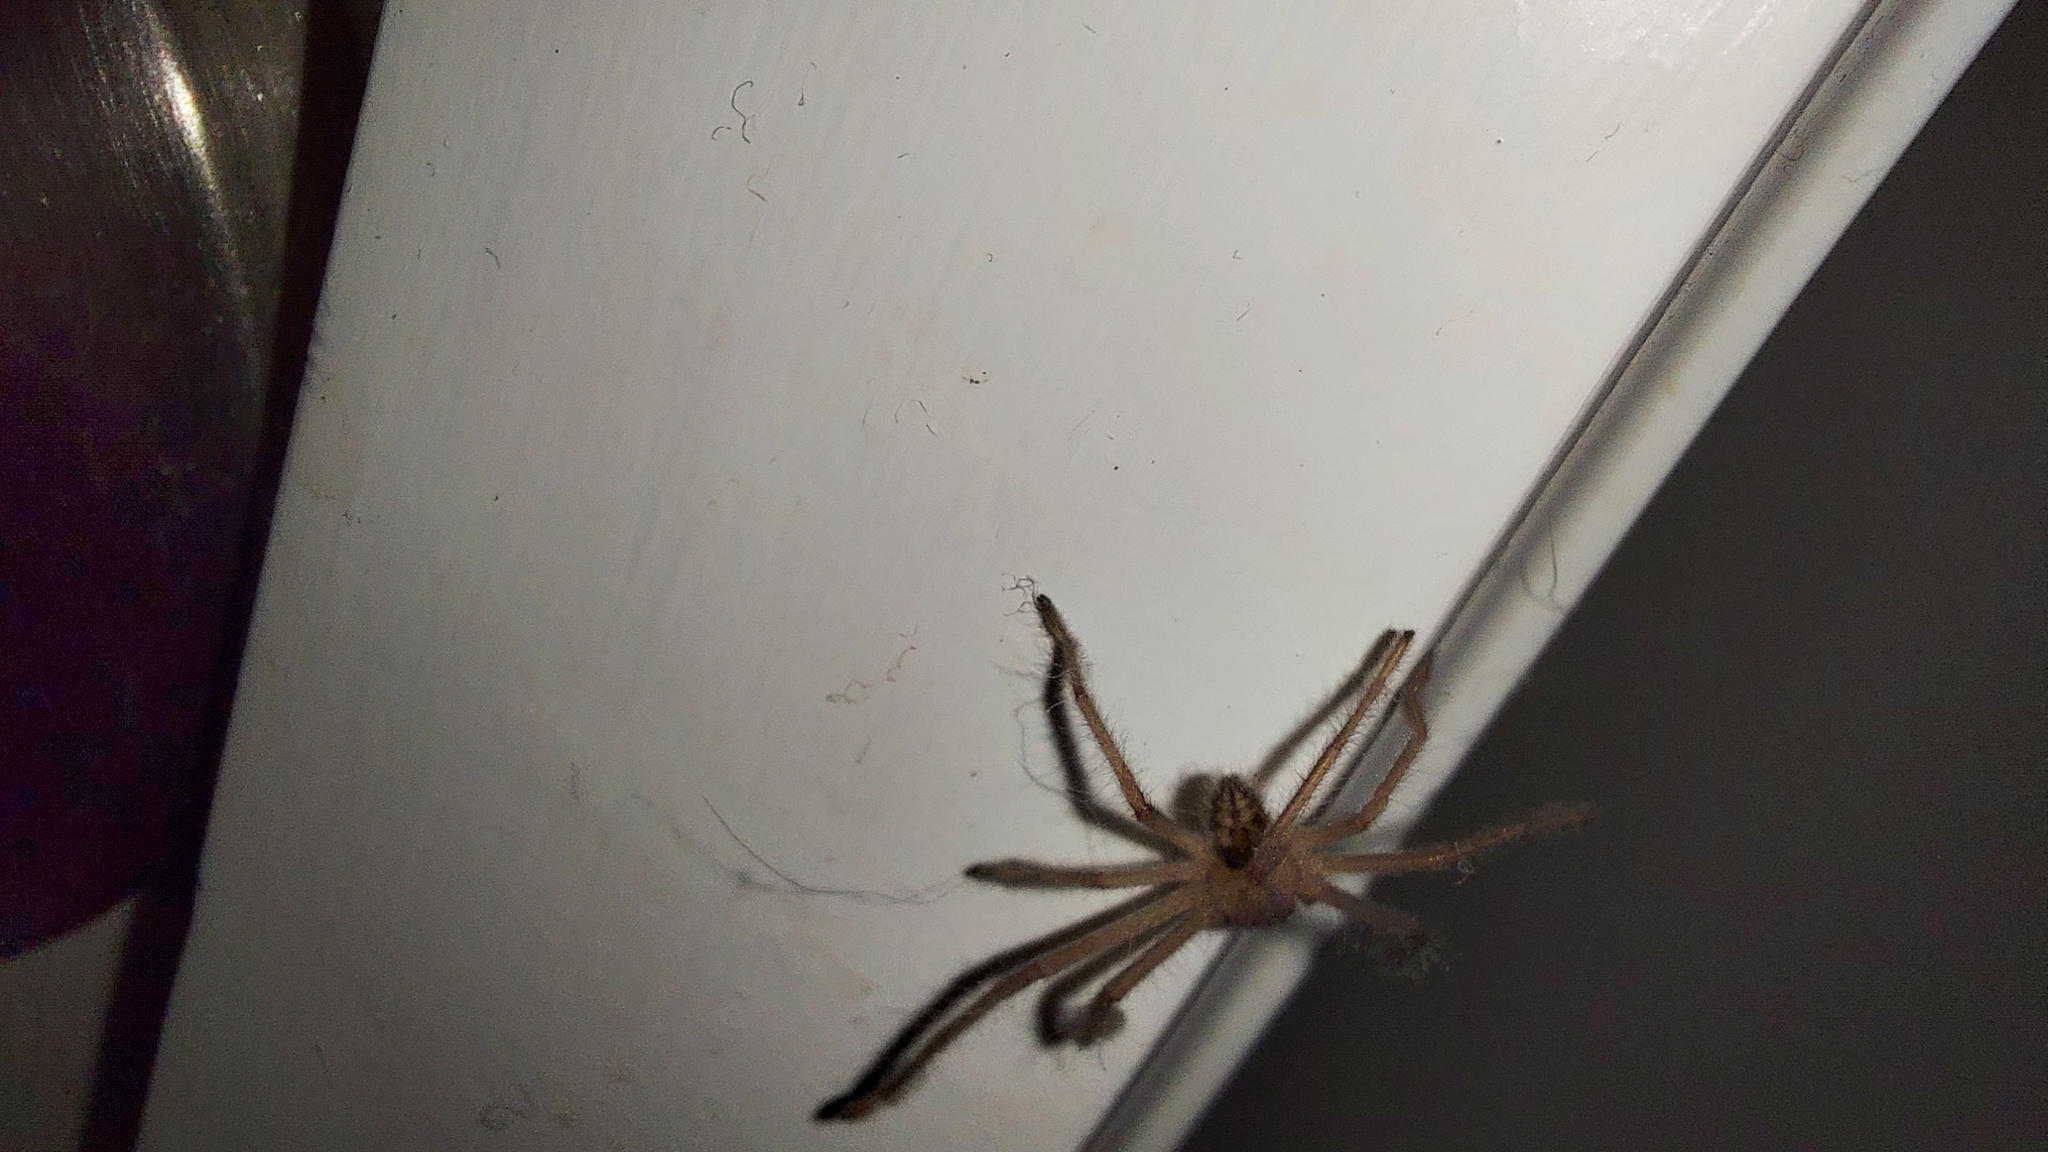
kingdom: Animalia
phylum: Arthropoda
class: Arachnida
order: Araneae
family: Sparassidae
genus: Delena
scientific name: Delena cancerides
